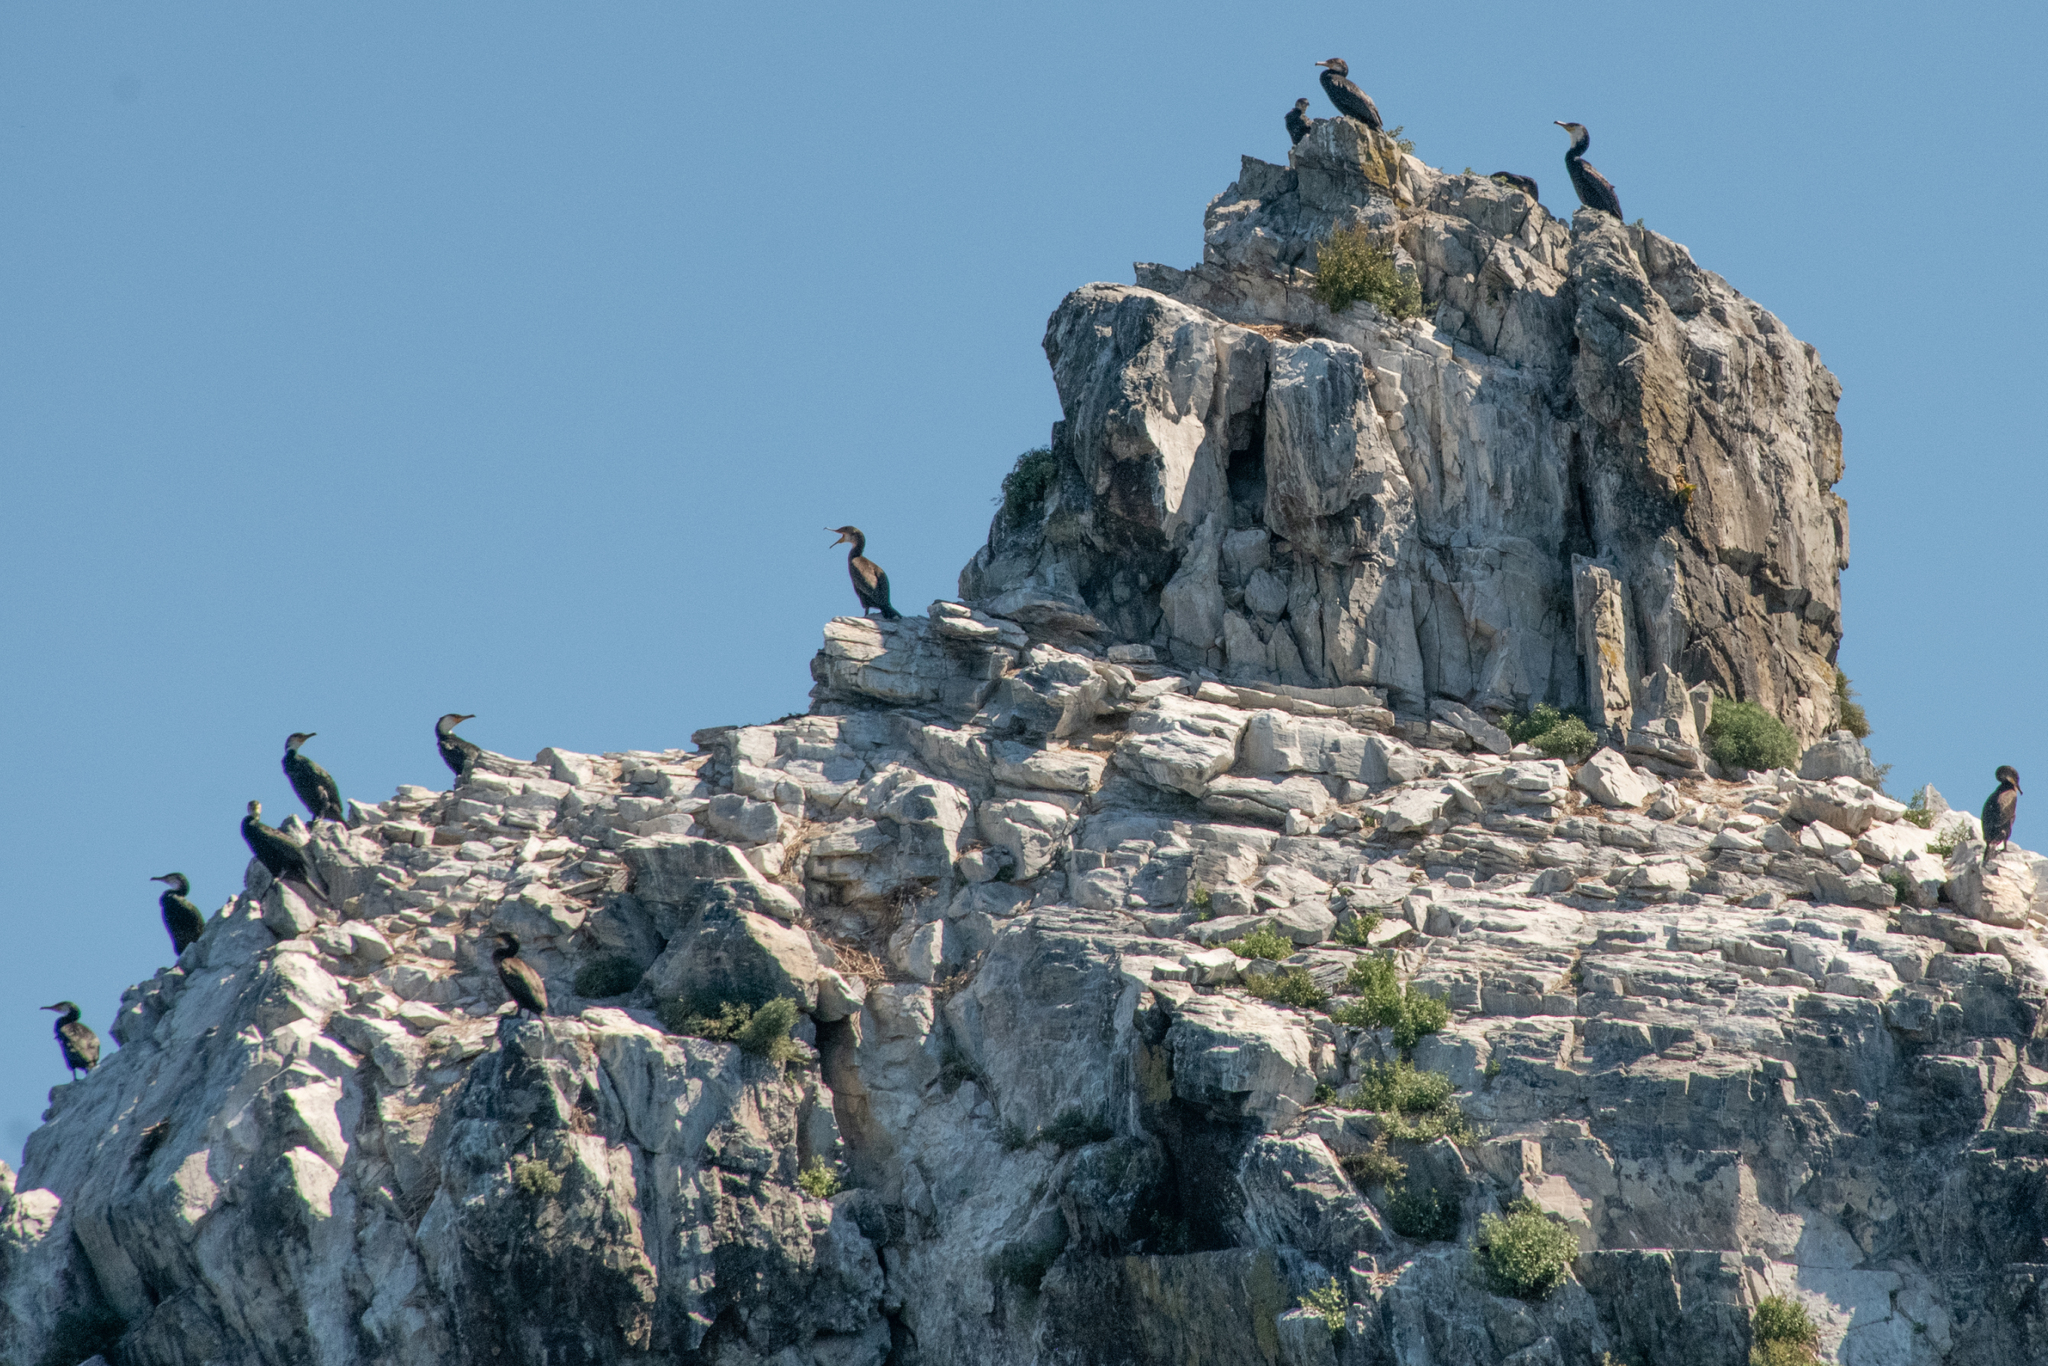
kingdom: Animalia
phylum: Chordata
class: Aves
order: Suliformes
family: Phalacrocoracidae
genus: Phalacrocorax
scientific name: Phalacrocorax capillatus
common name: Japanese cormorant
